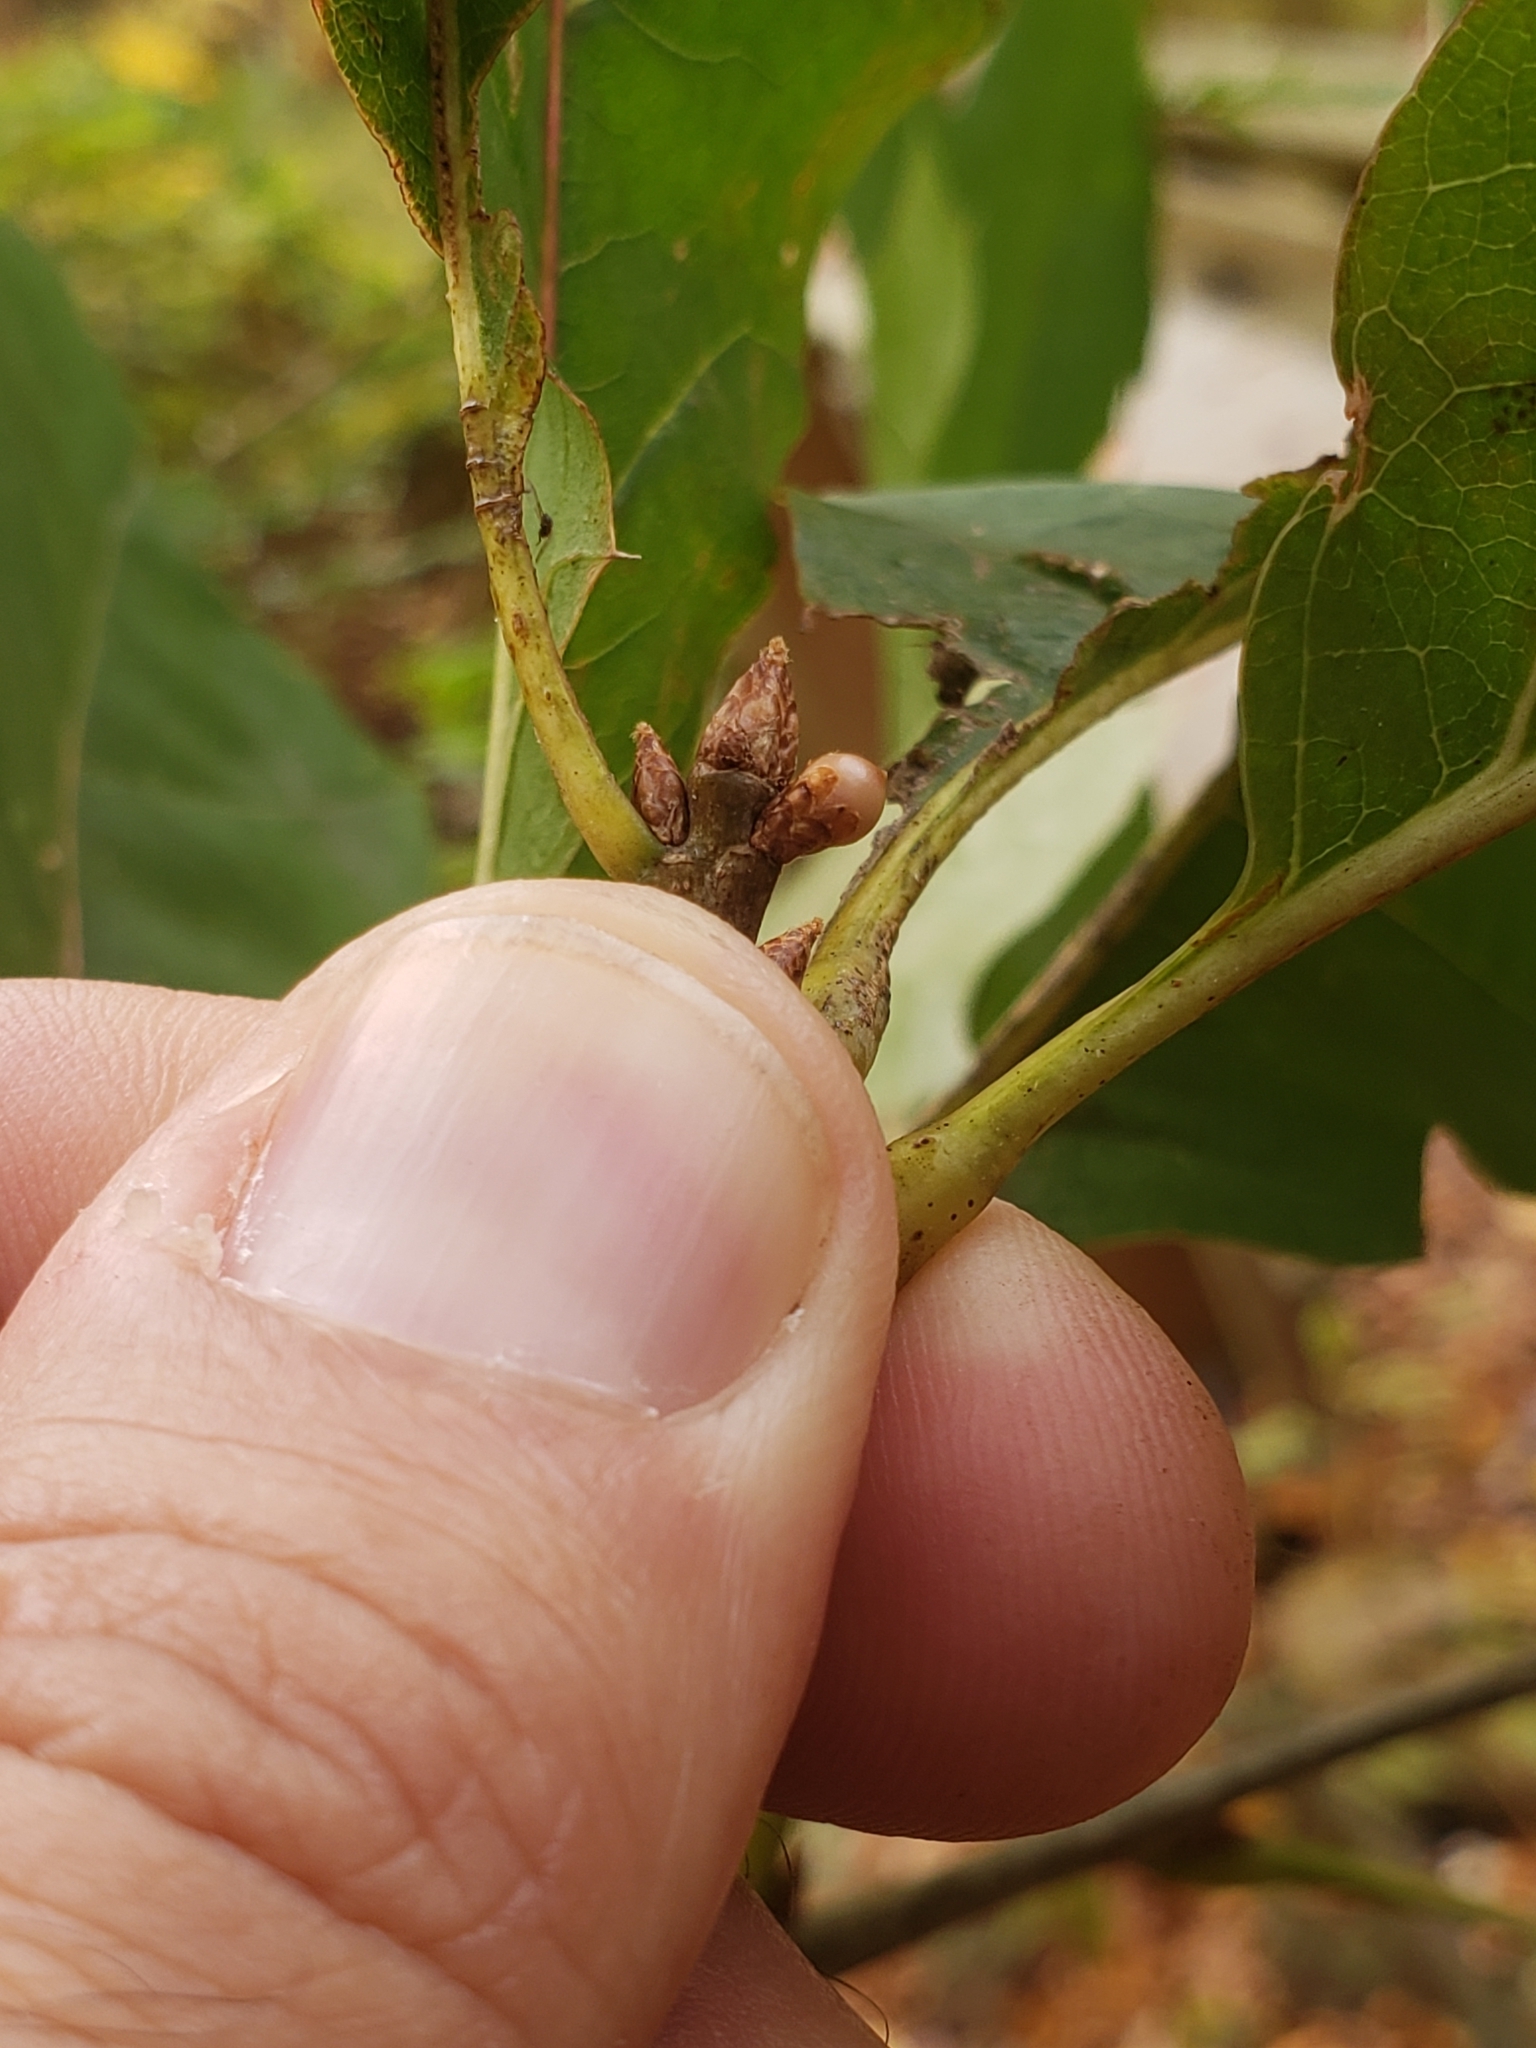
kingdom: Animalia
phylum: Arthropoda
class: Insecta
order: Hymenoptera
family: Cynipidae
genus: Callirhytis
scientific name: Callirhytis
